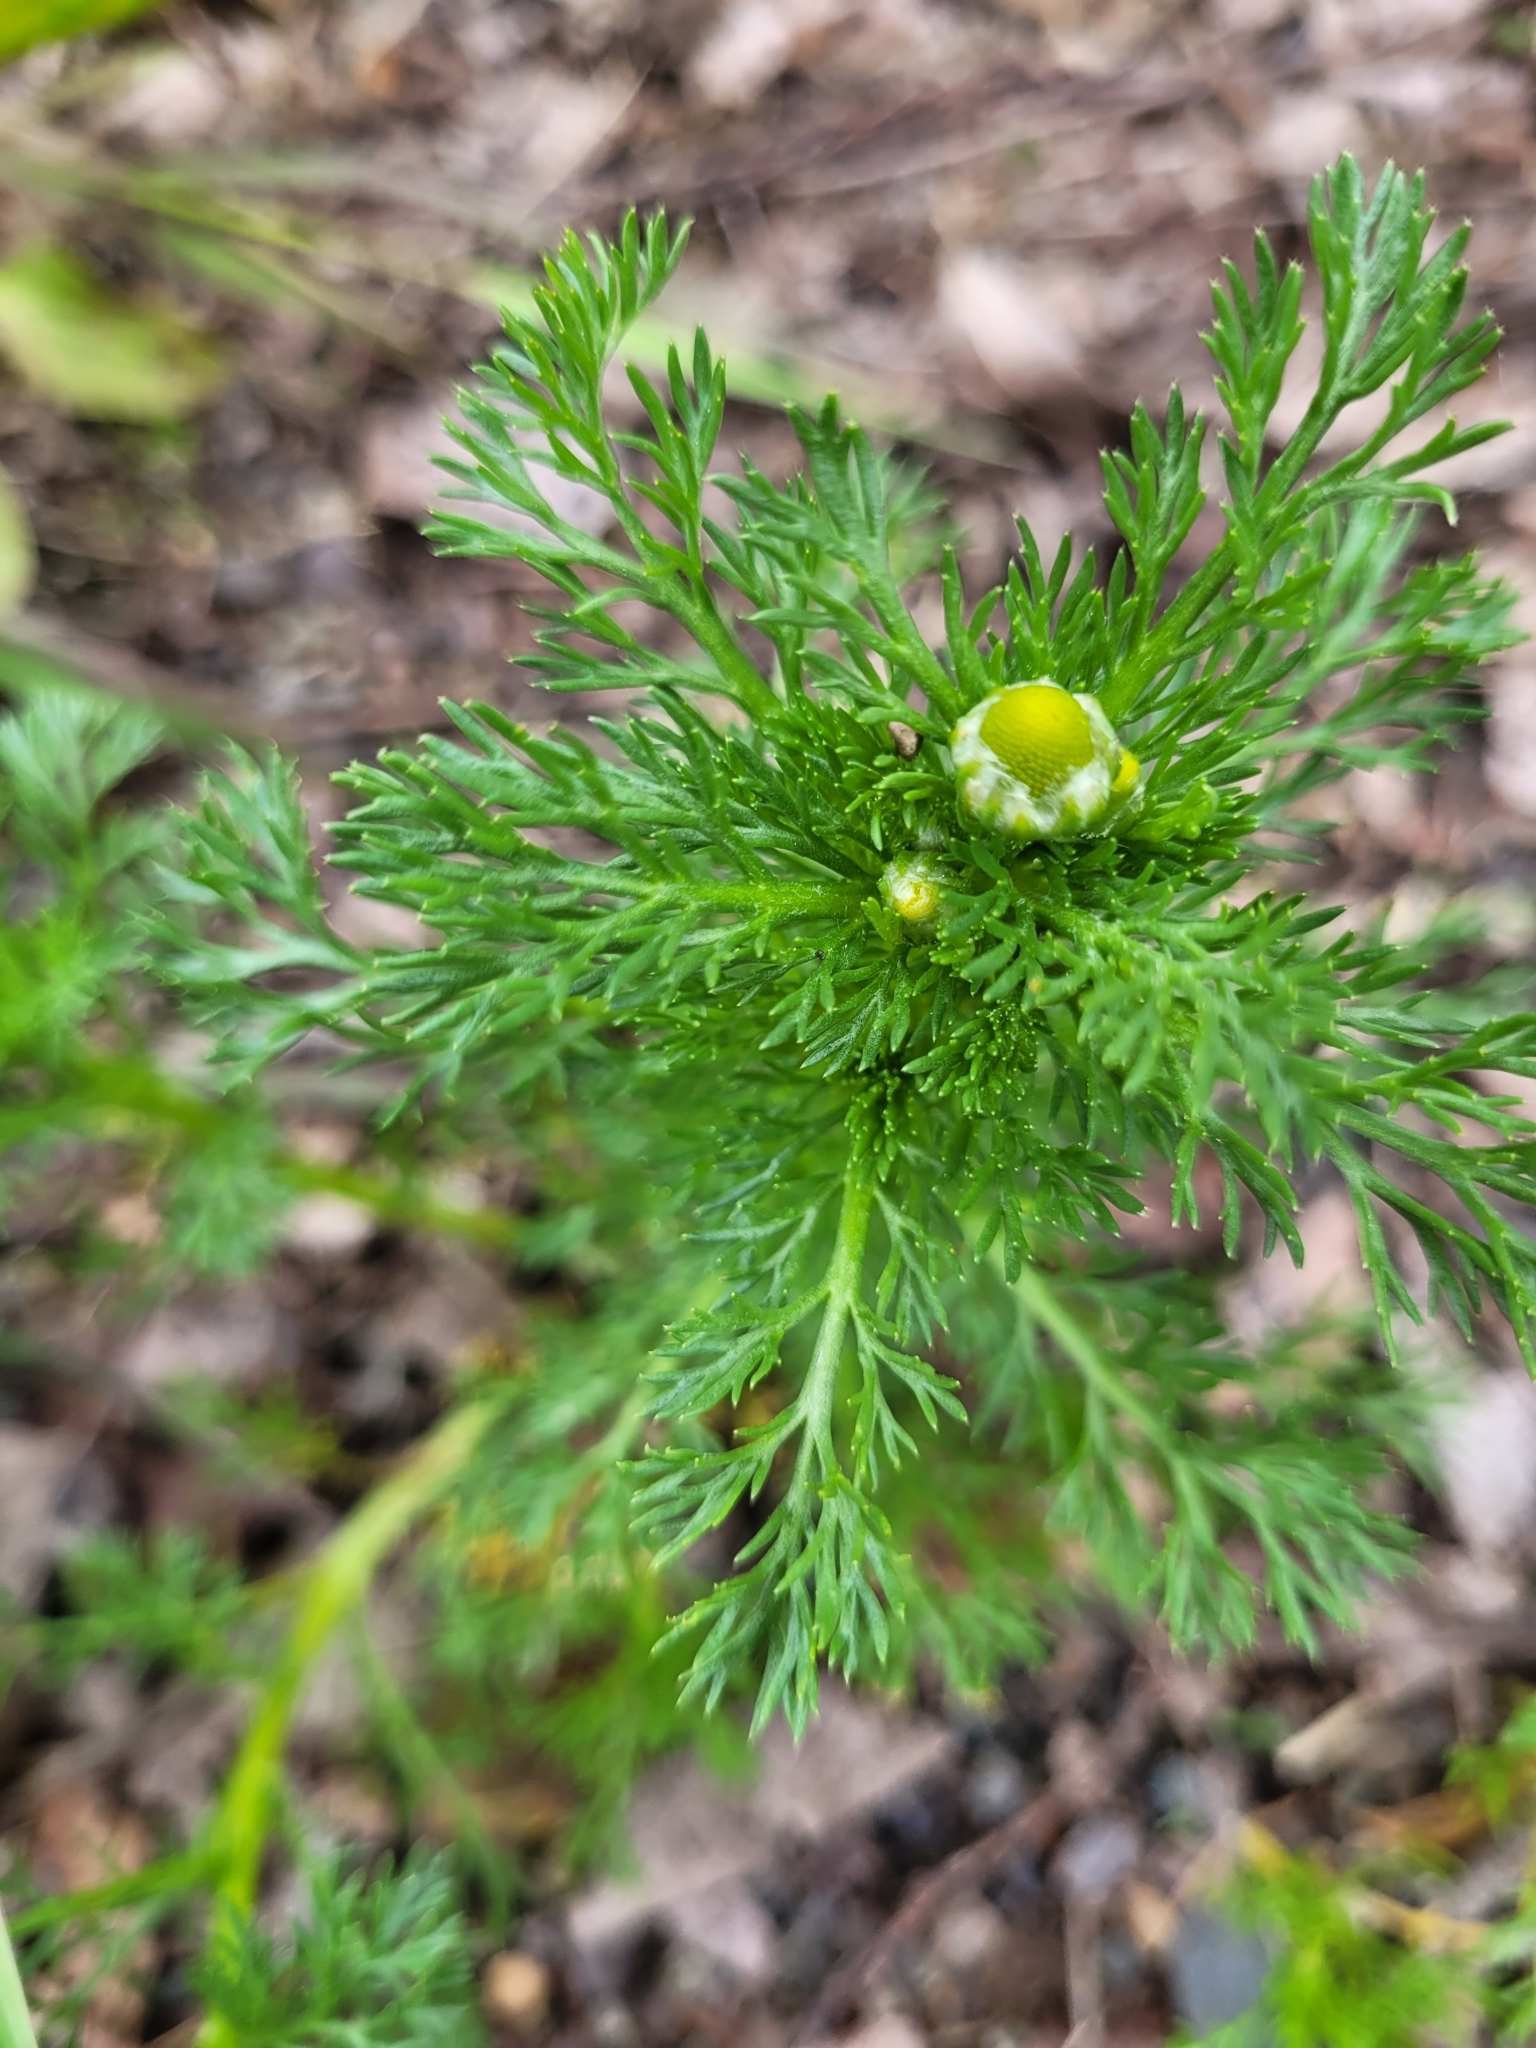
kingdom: Plantae
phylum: Tracheophyta
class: Magnoliopsida
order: Asterales
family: Asteraceae
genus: Matricaria
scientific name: Matricaria discoidea
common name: Disc mayweed
